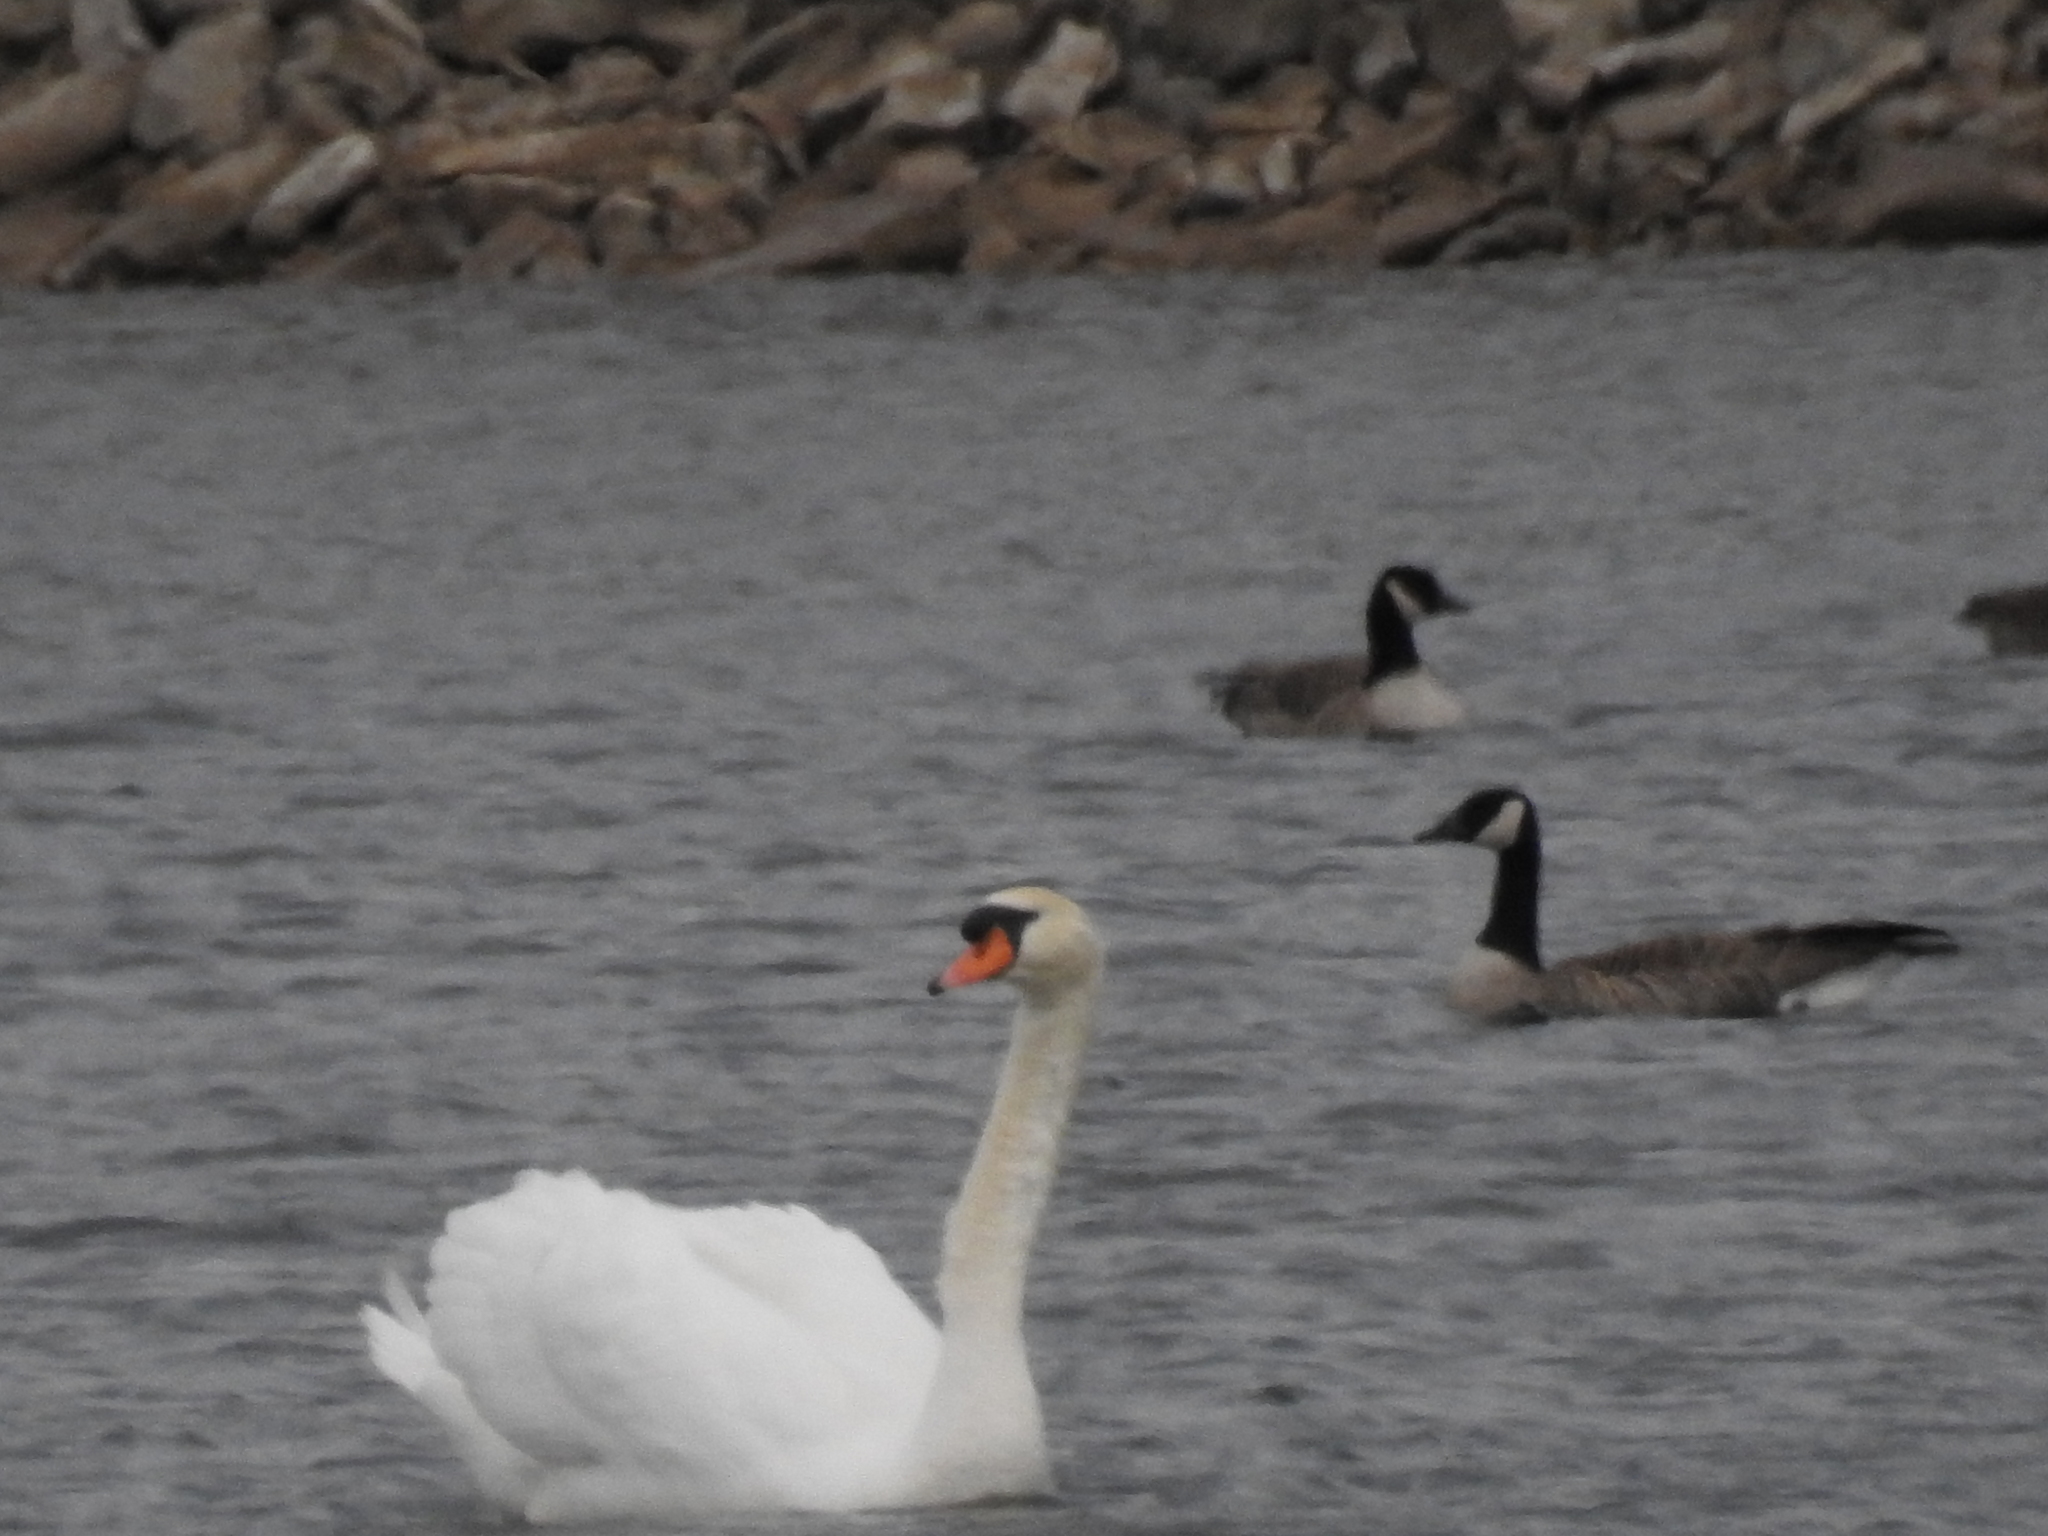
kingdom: Animalia
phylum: Chordata
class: Aves
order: Anseriformes
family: Anatidae
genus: Branta
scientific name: Branta canadensis
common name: Canada goose
